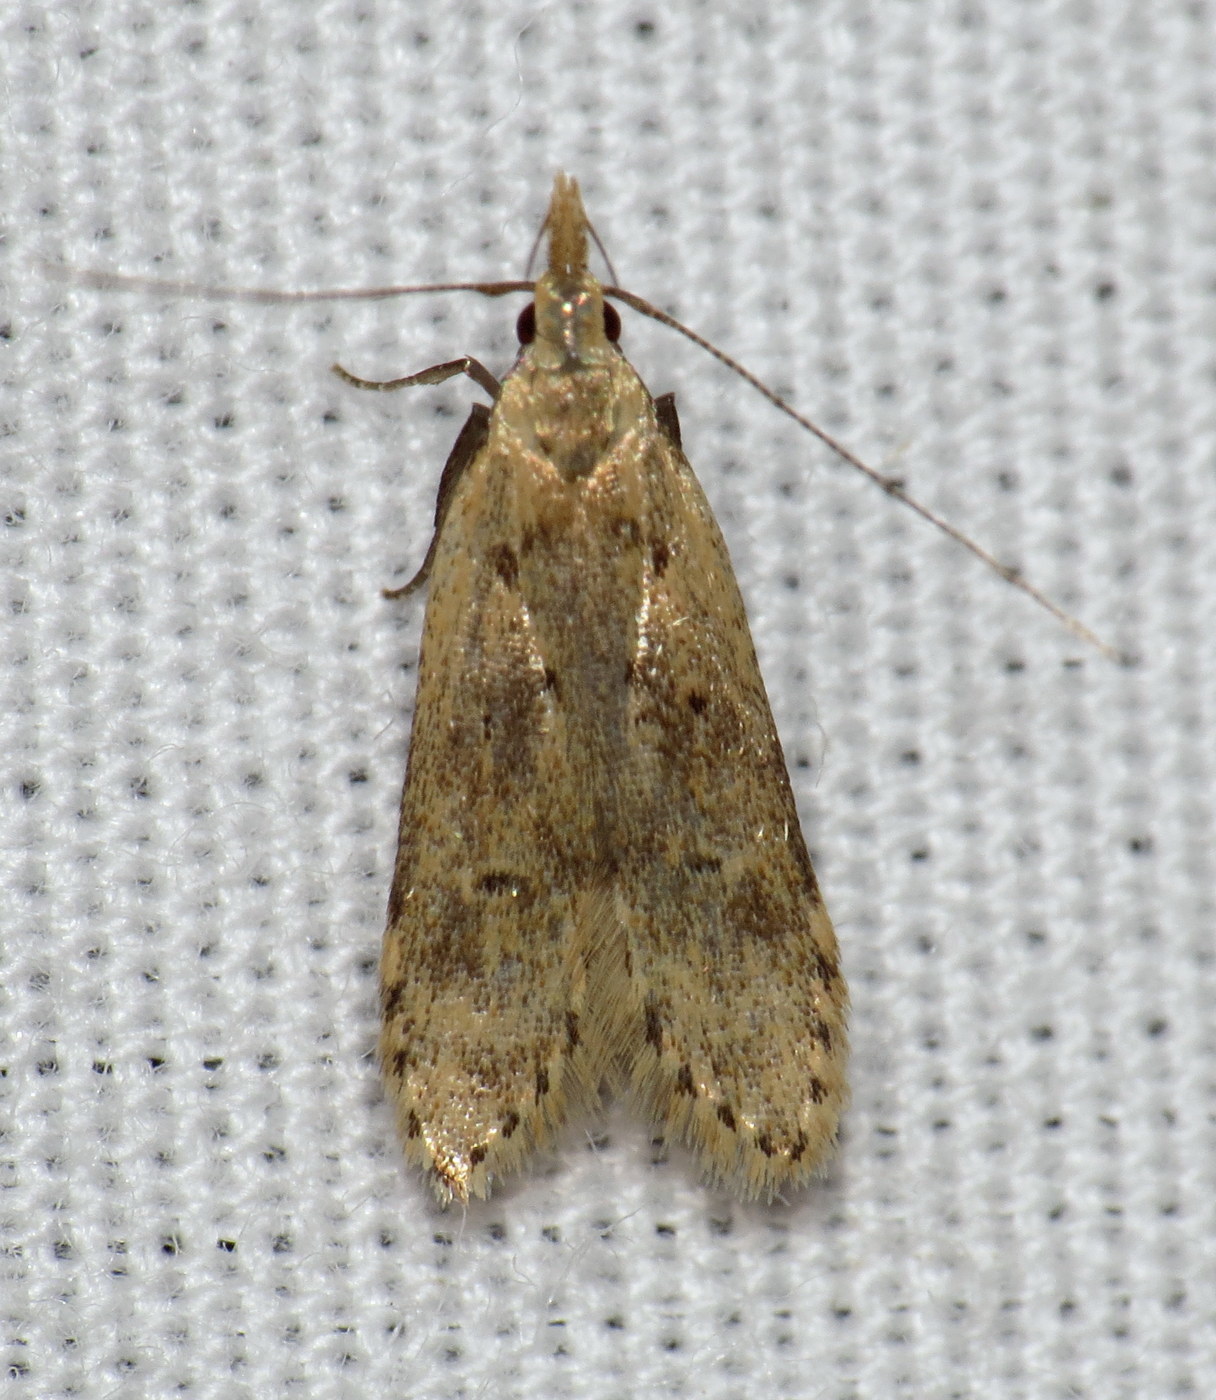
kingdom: Animalia
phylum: Arthropoda
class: Insecta
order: Lepidoptera
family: Gelechiidae
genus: Dichomeris
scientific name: Dichomeris punctipennella
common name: Many-spotted dichomeris moth
